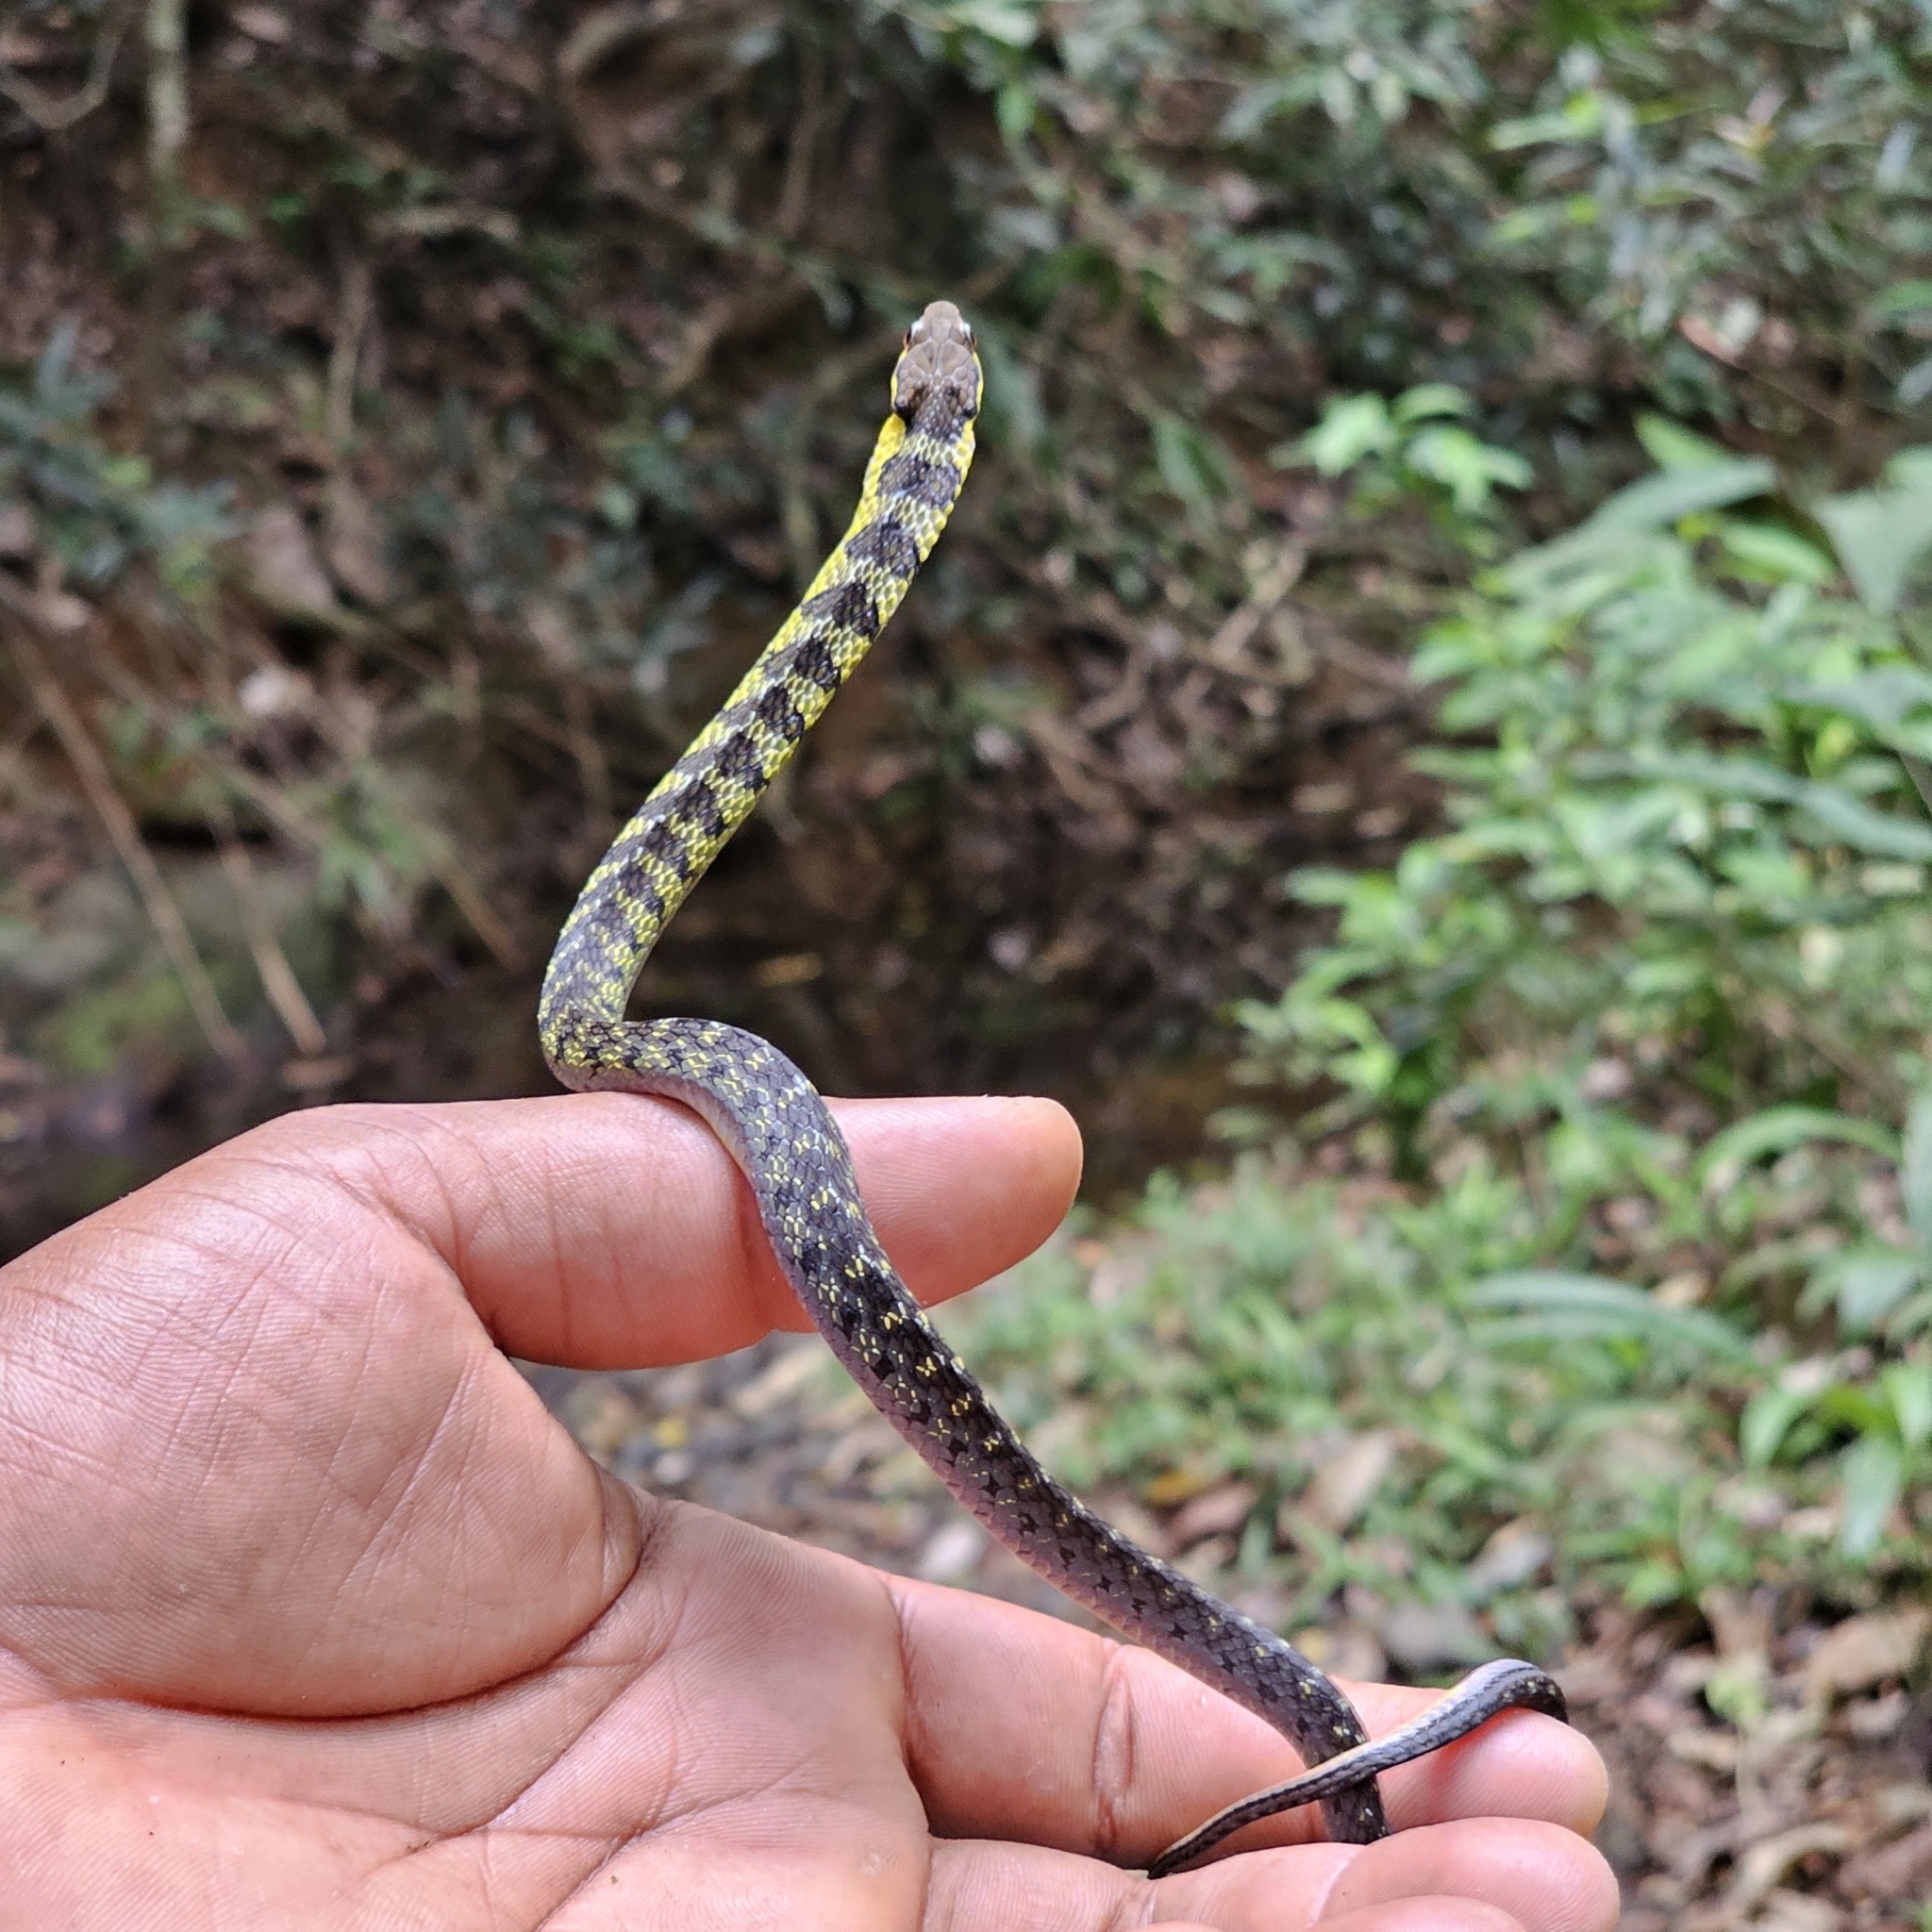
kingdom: Animalia
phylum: Chordata
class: Squamata
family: Colubridae
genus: Erythrolamprus
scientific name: Erythrolamprus epinephalus
